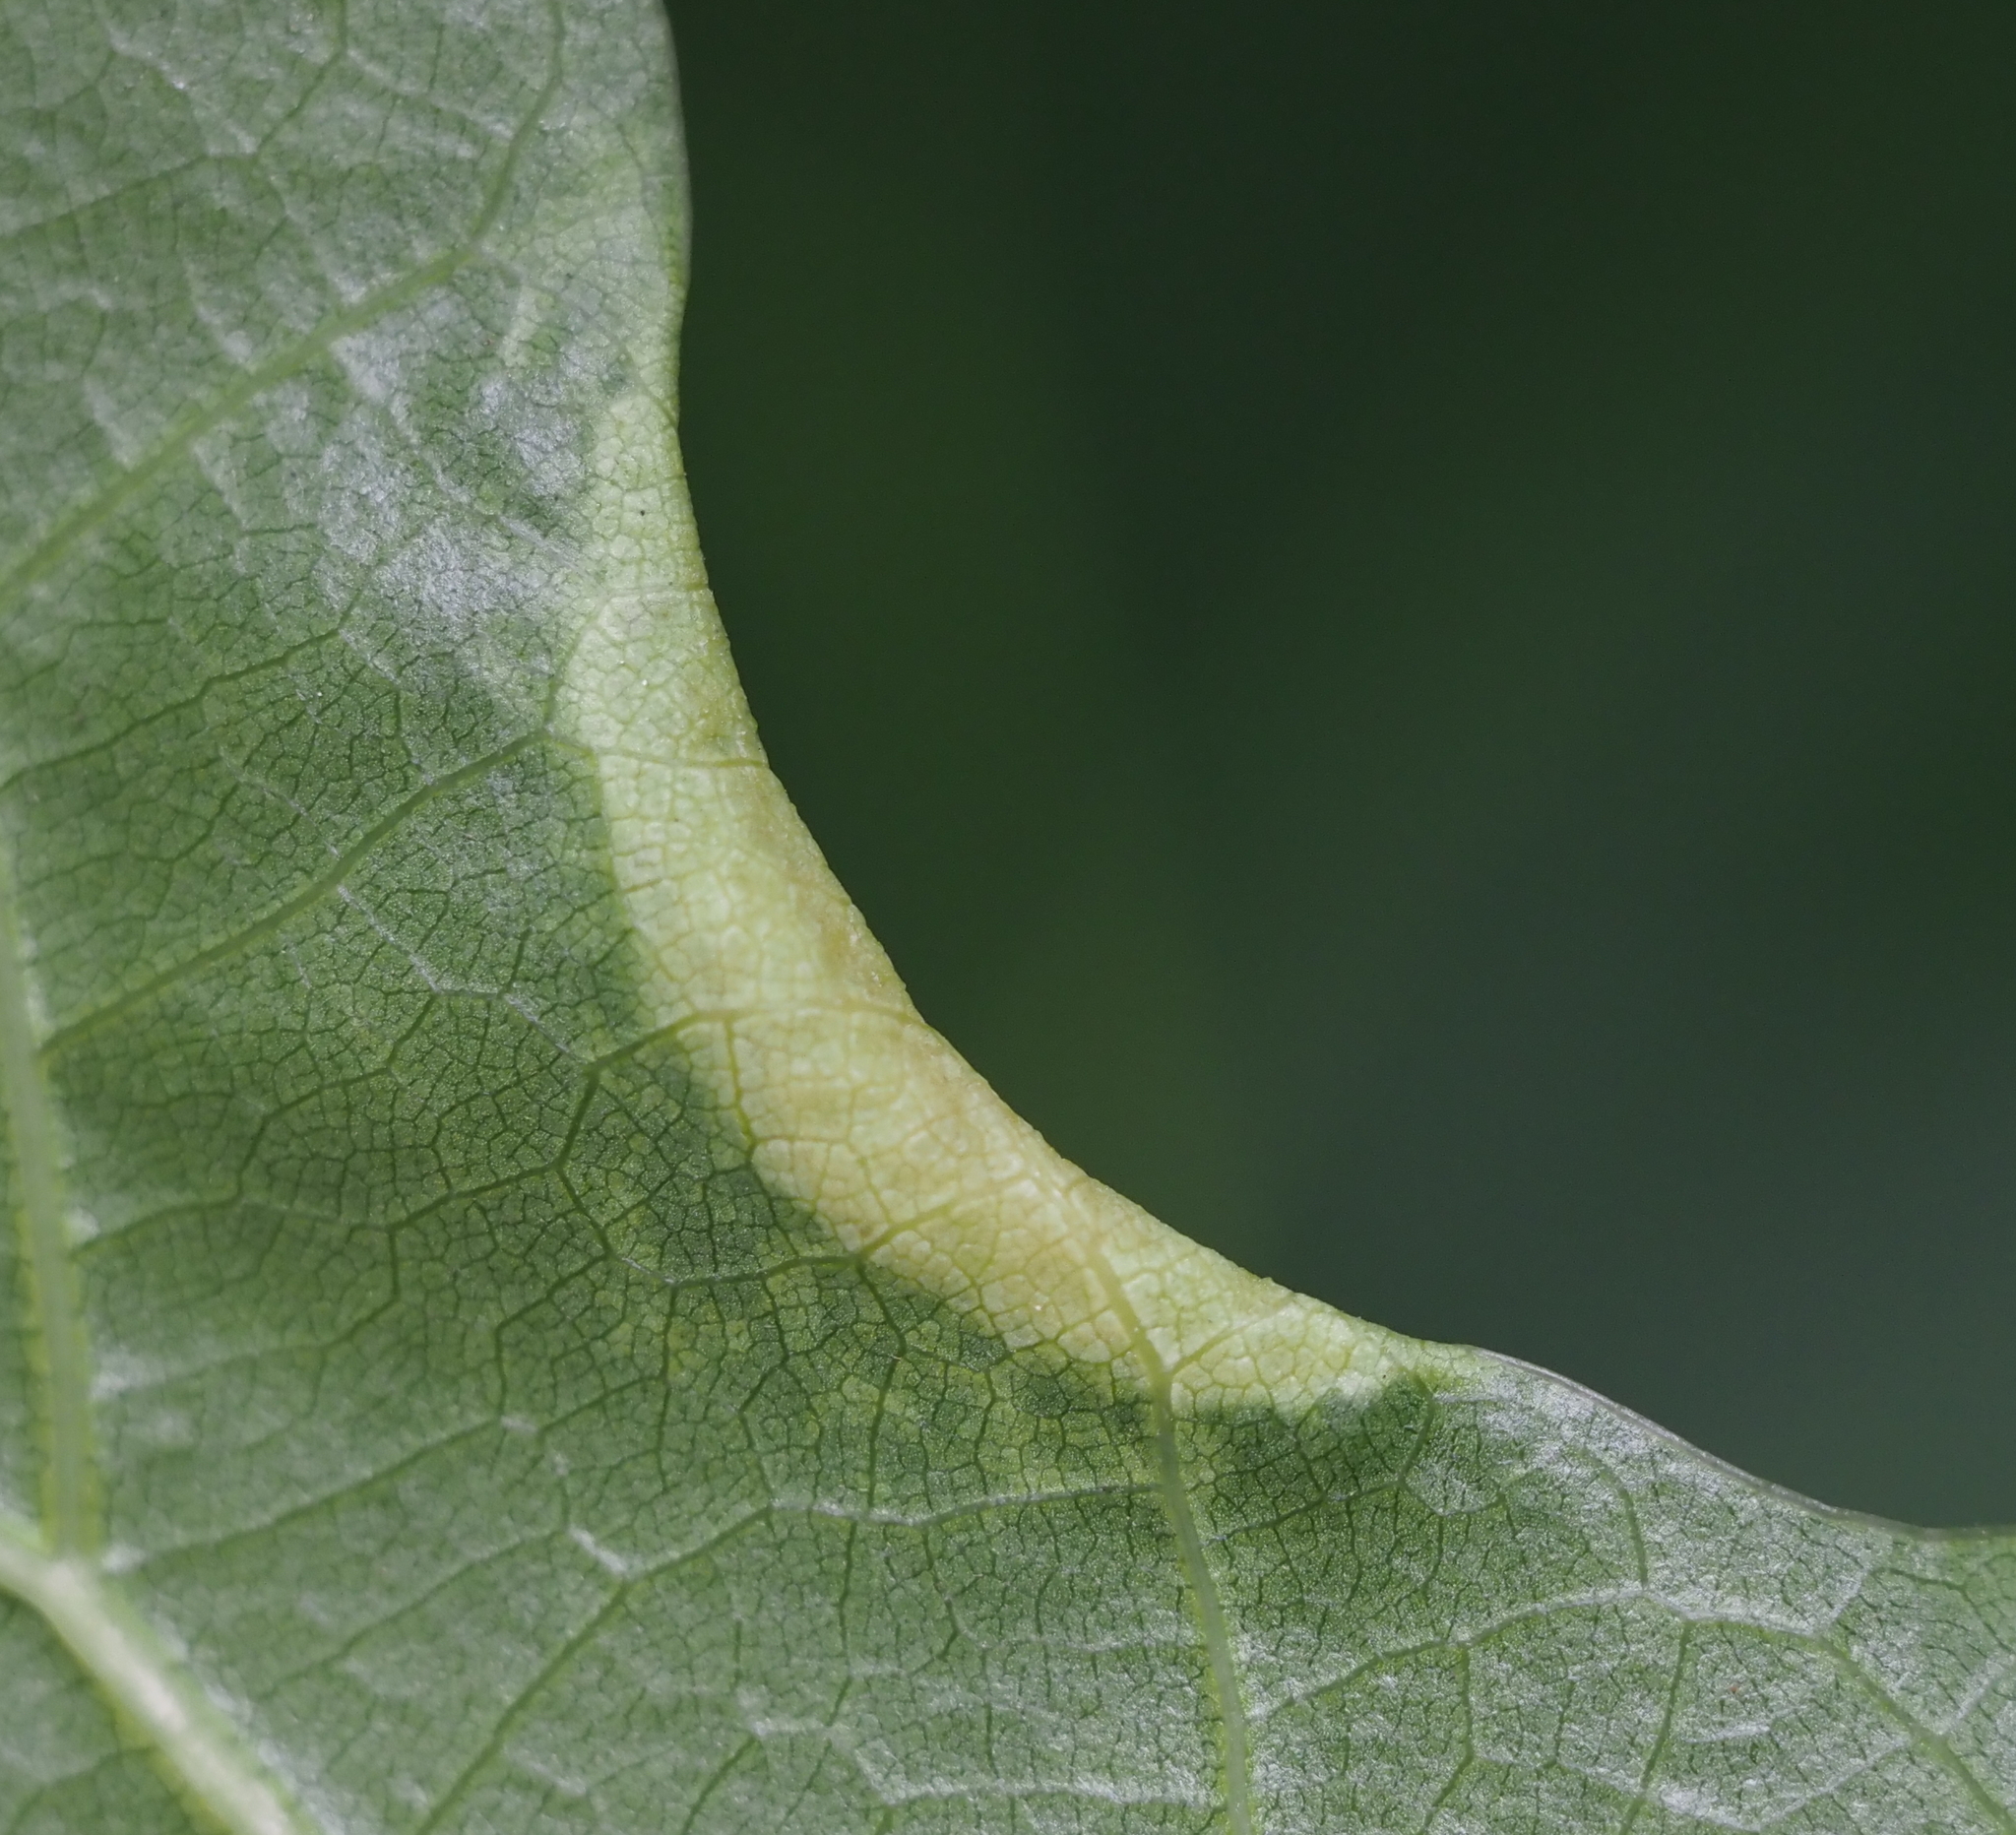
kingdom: Animalia
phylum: Arthropoda
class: Insecta
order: Diptera
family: Cecidomyiidae
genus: Macrodiplosis
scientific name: Macrodiplosis erubescens
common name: Marginal leaf fold gall midge
